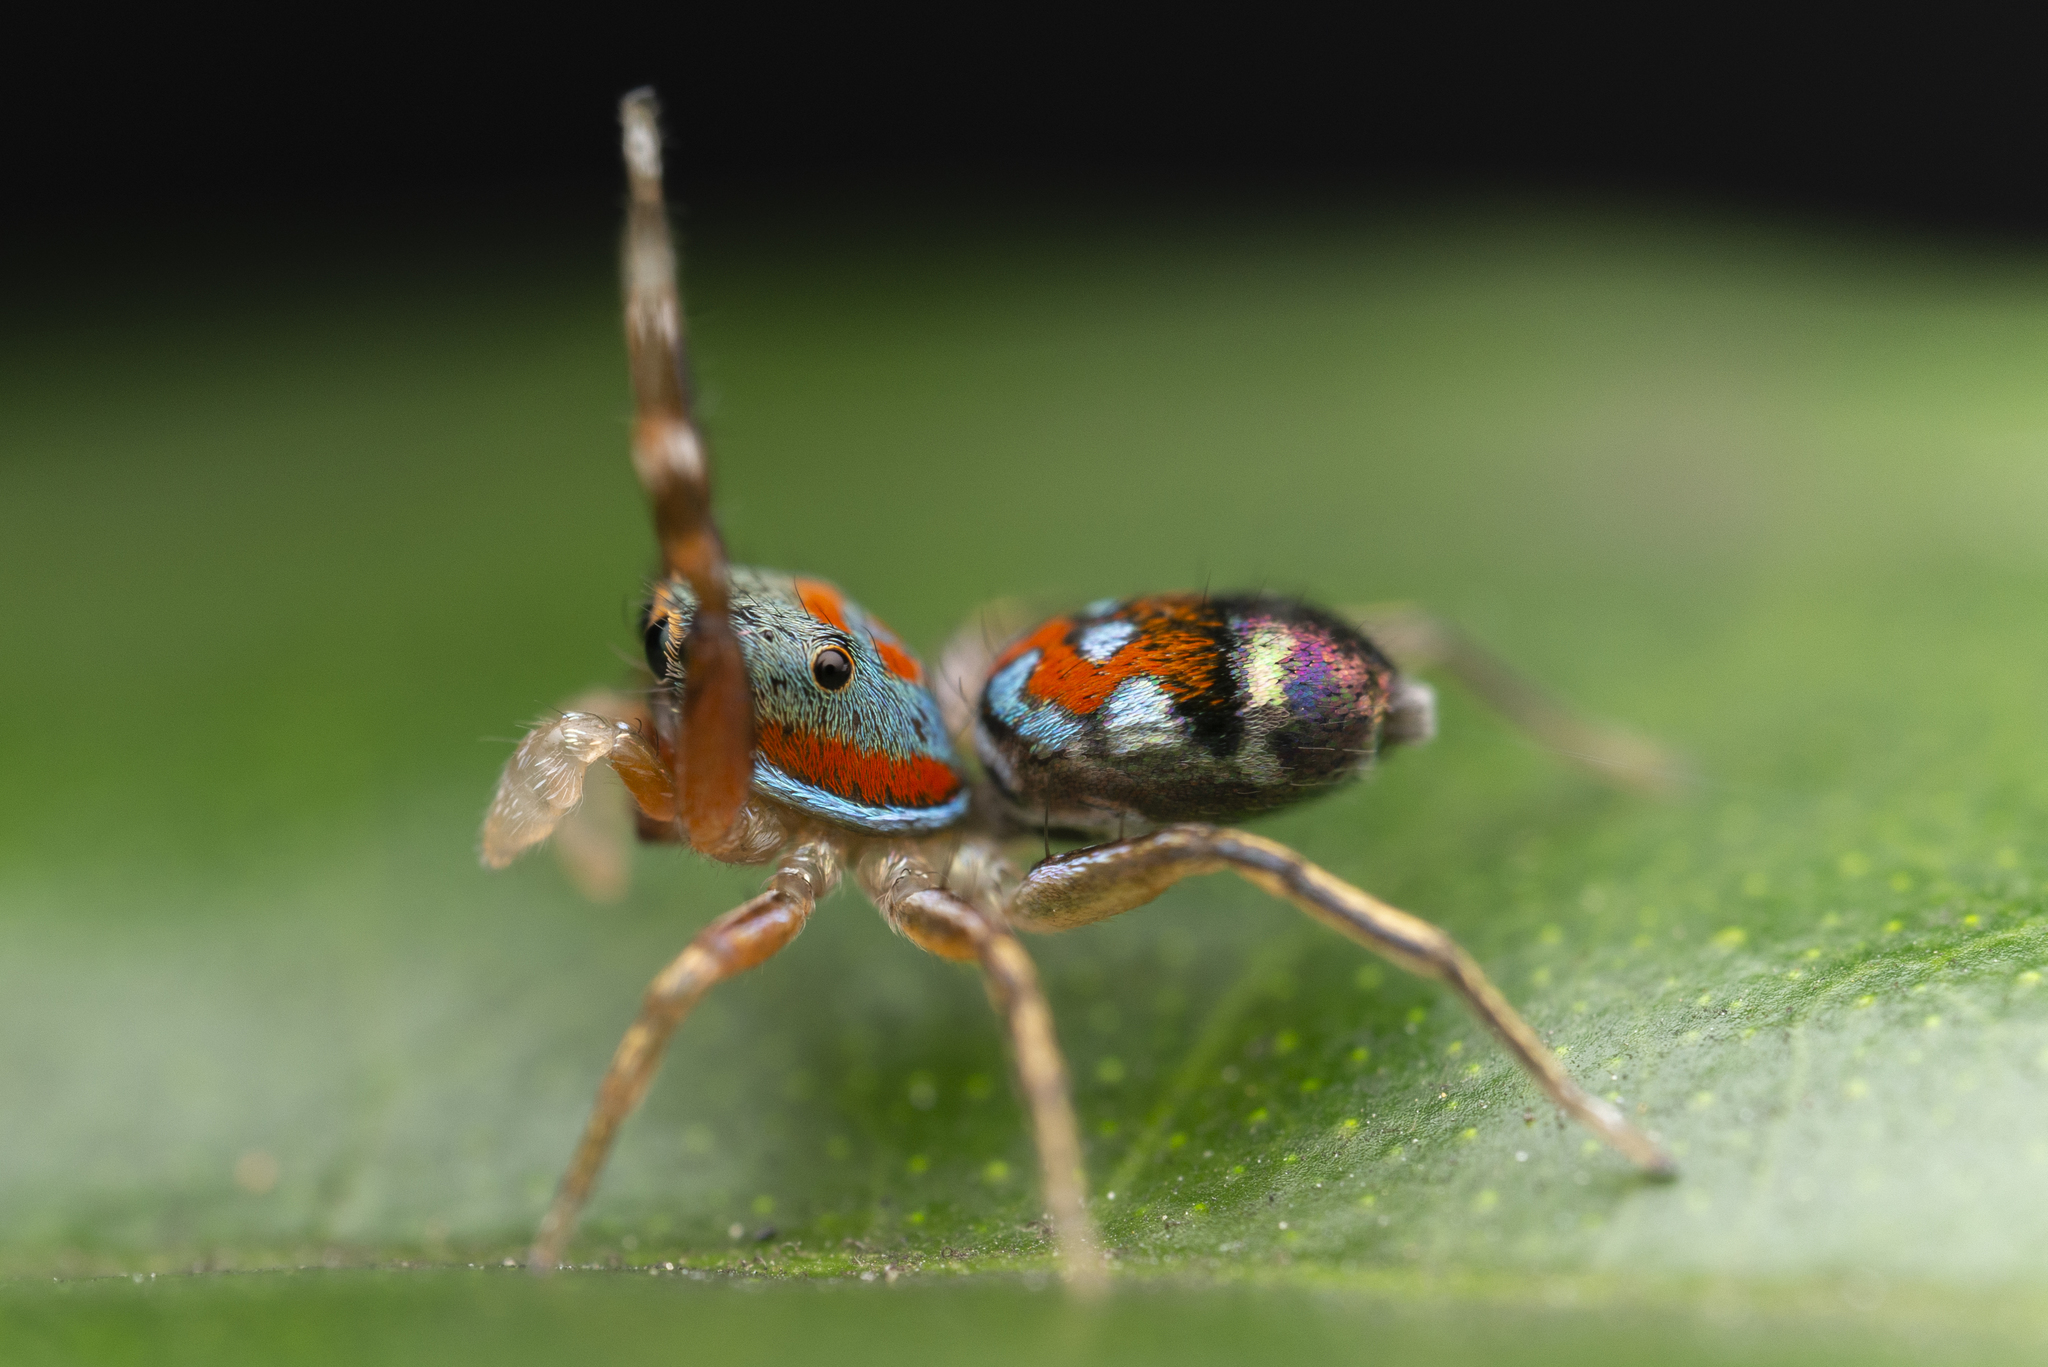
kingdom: Animalia
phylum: Arthropoda
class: Arachnida
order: Araneae
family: Salticidae
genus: Siler
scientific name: Siler collingwoodi
